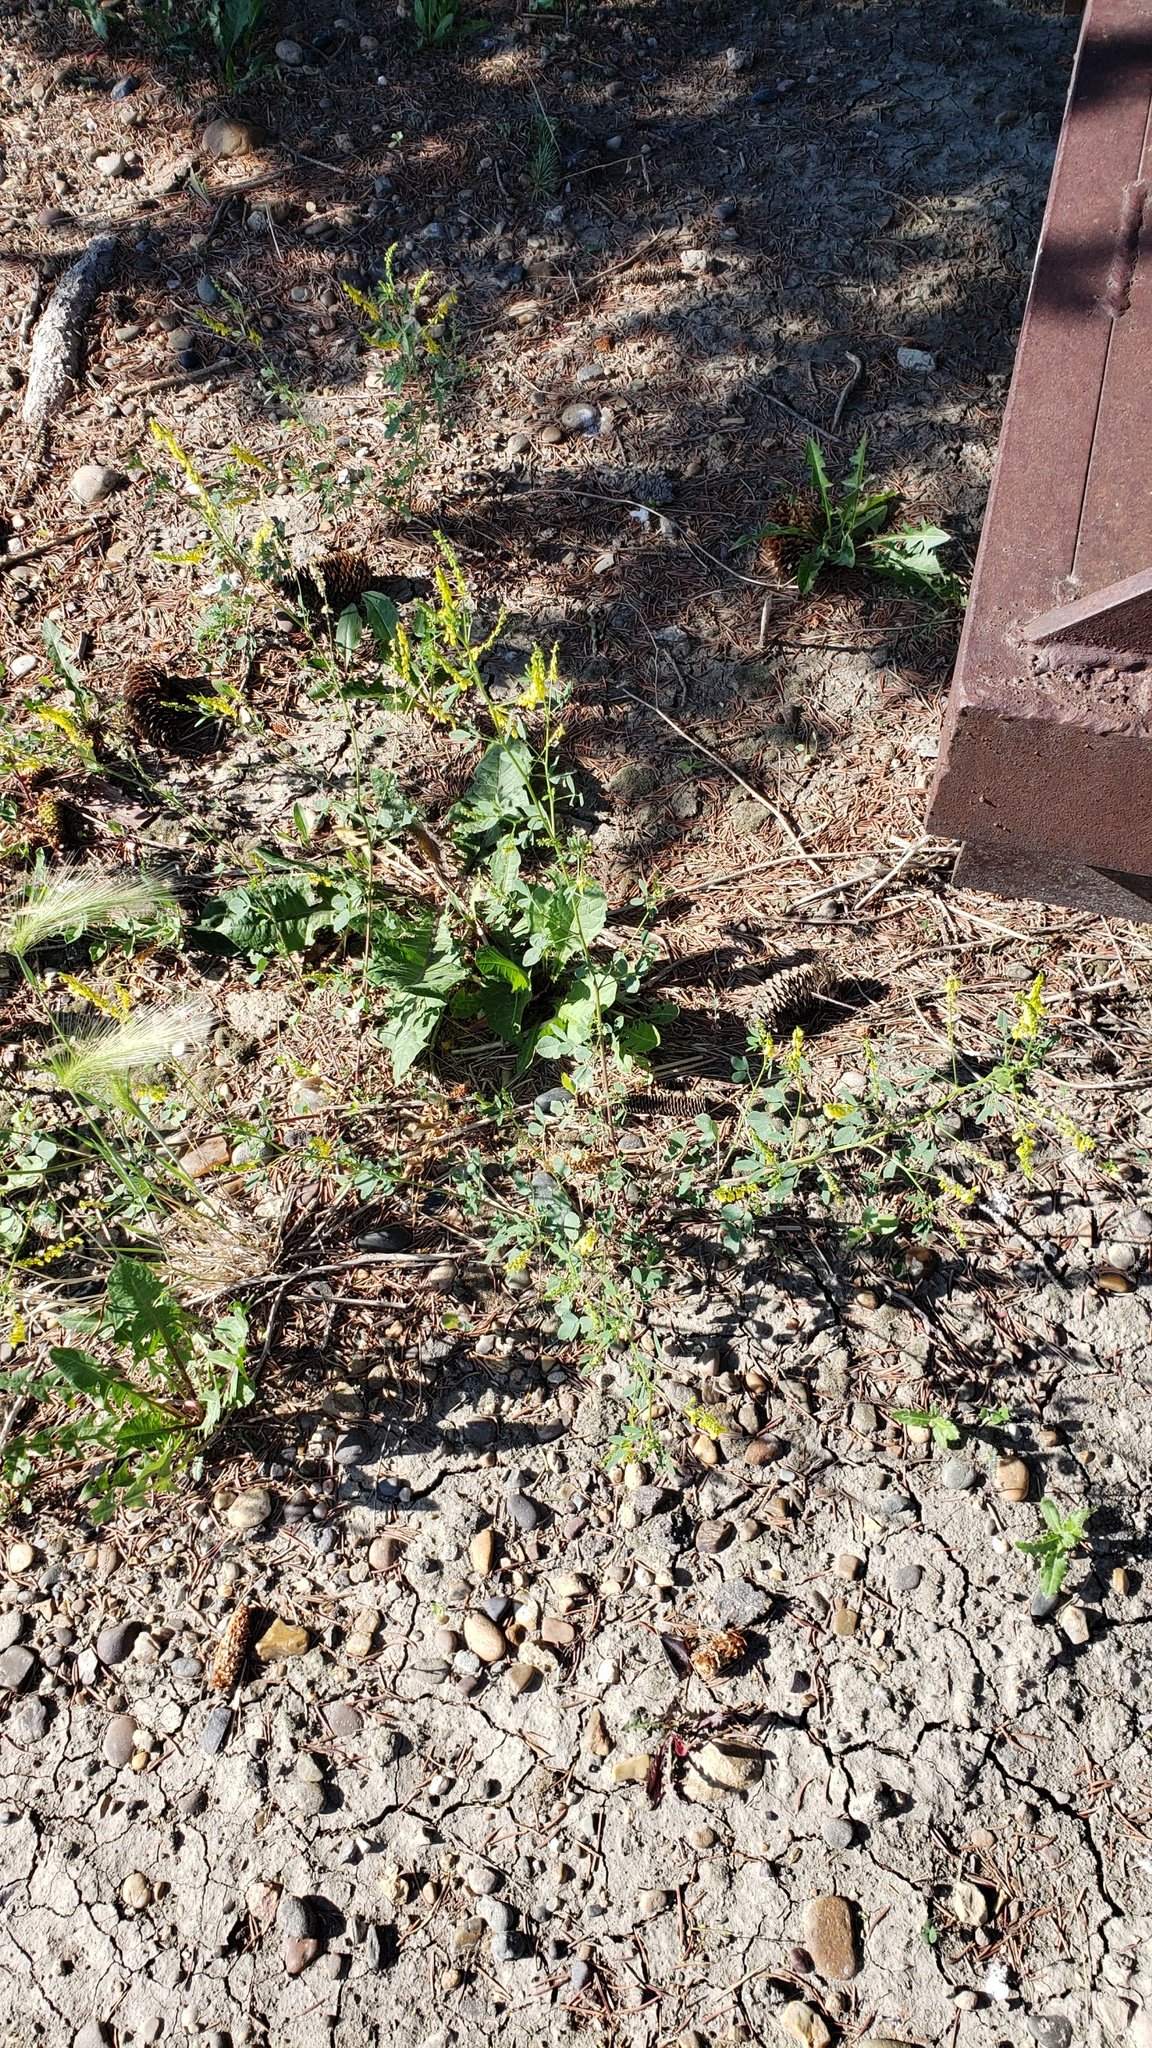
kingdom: Plantae
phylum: Tracheophyta
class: Magnoliopsida
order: Fabales
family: Fabaceae
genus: Melilotus
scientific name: Melilotus officinalis
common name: Sweetclover
